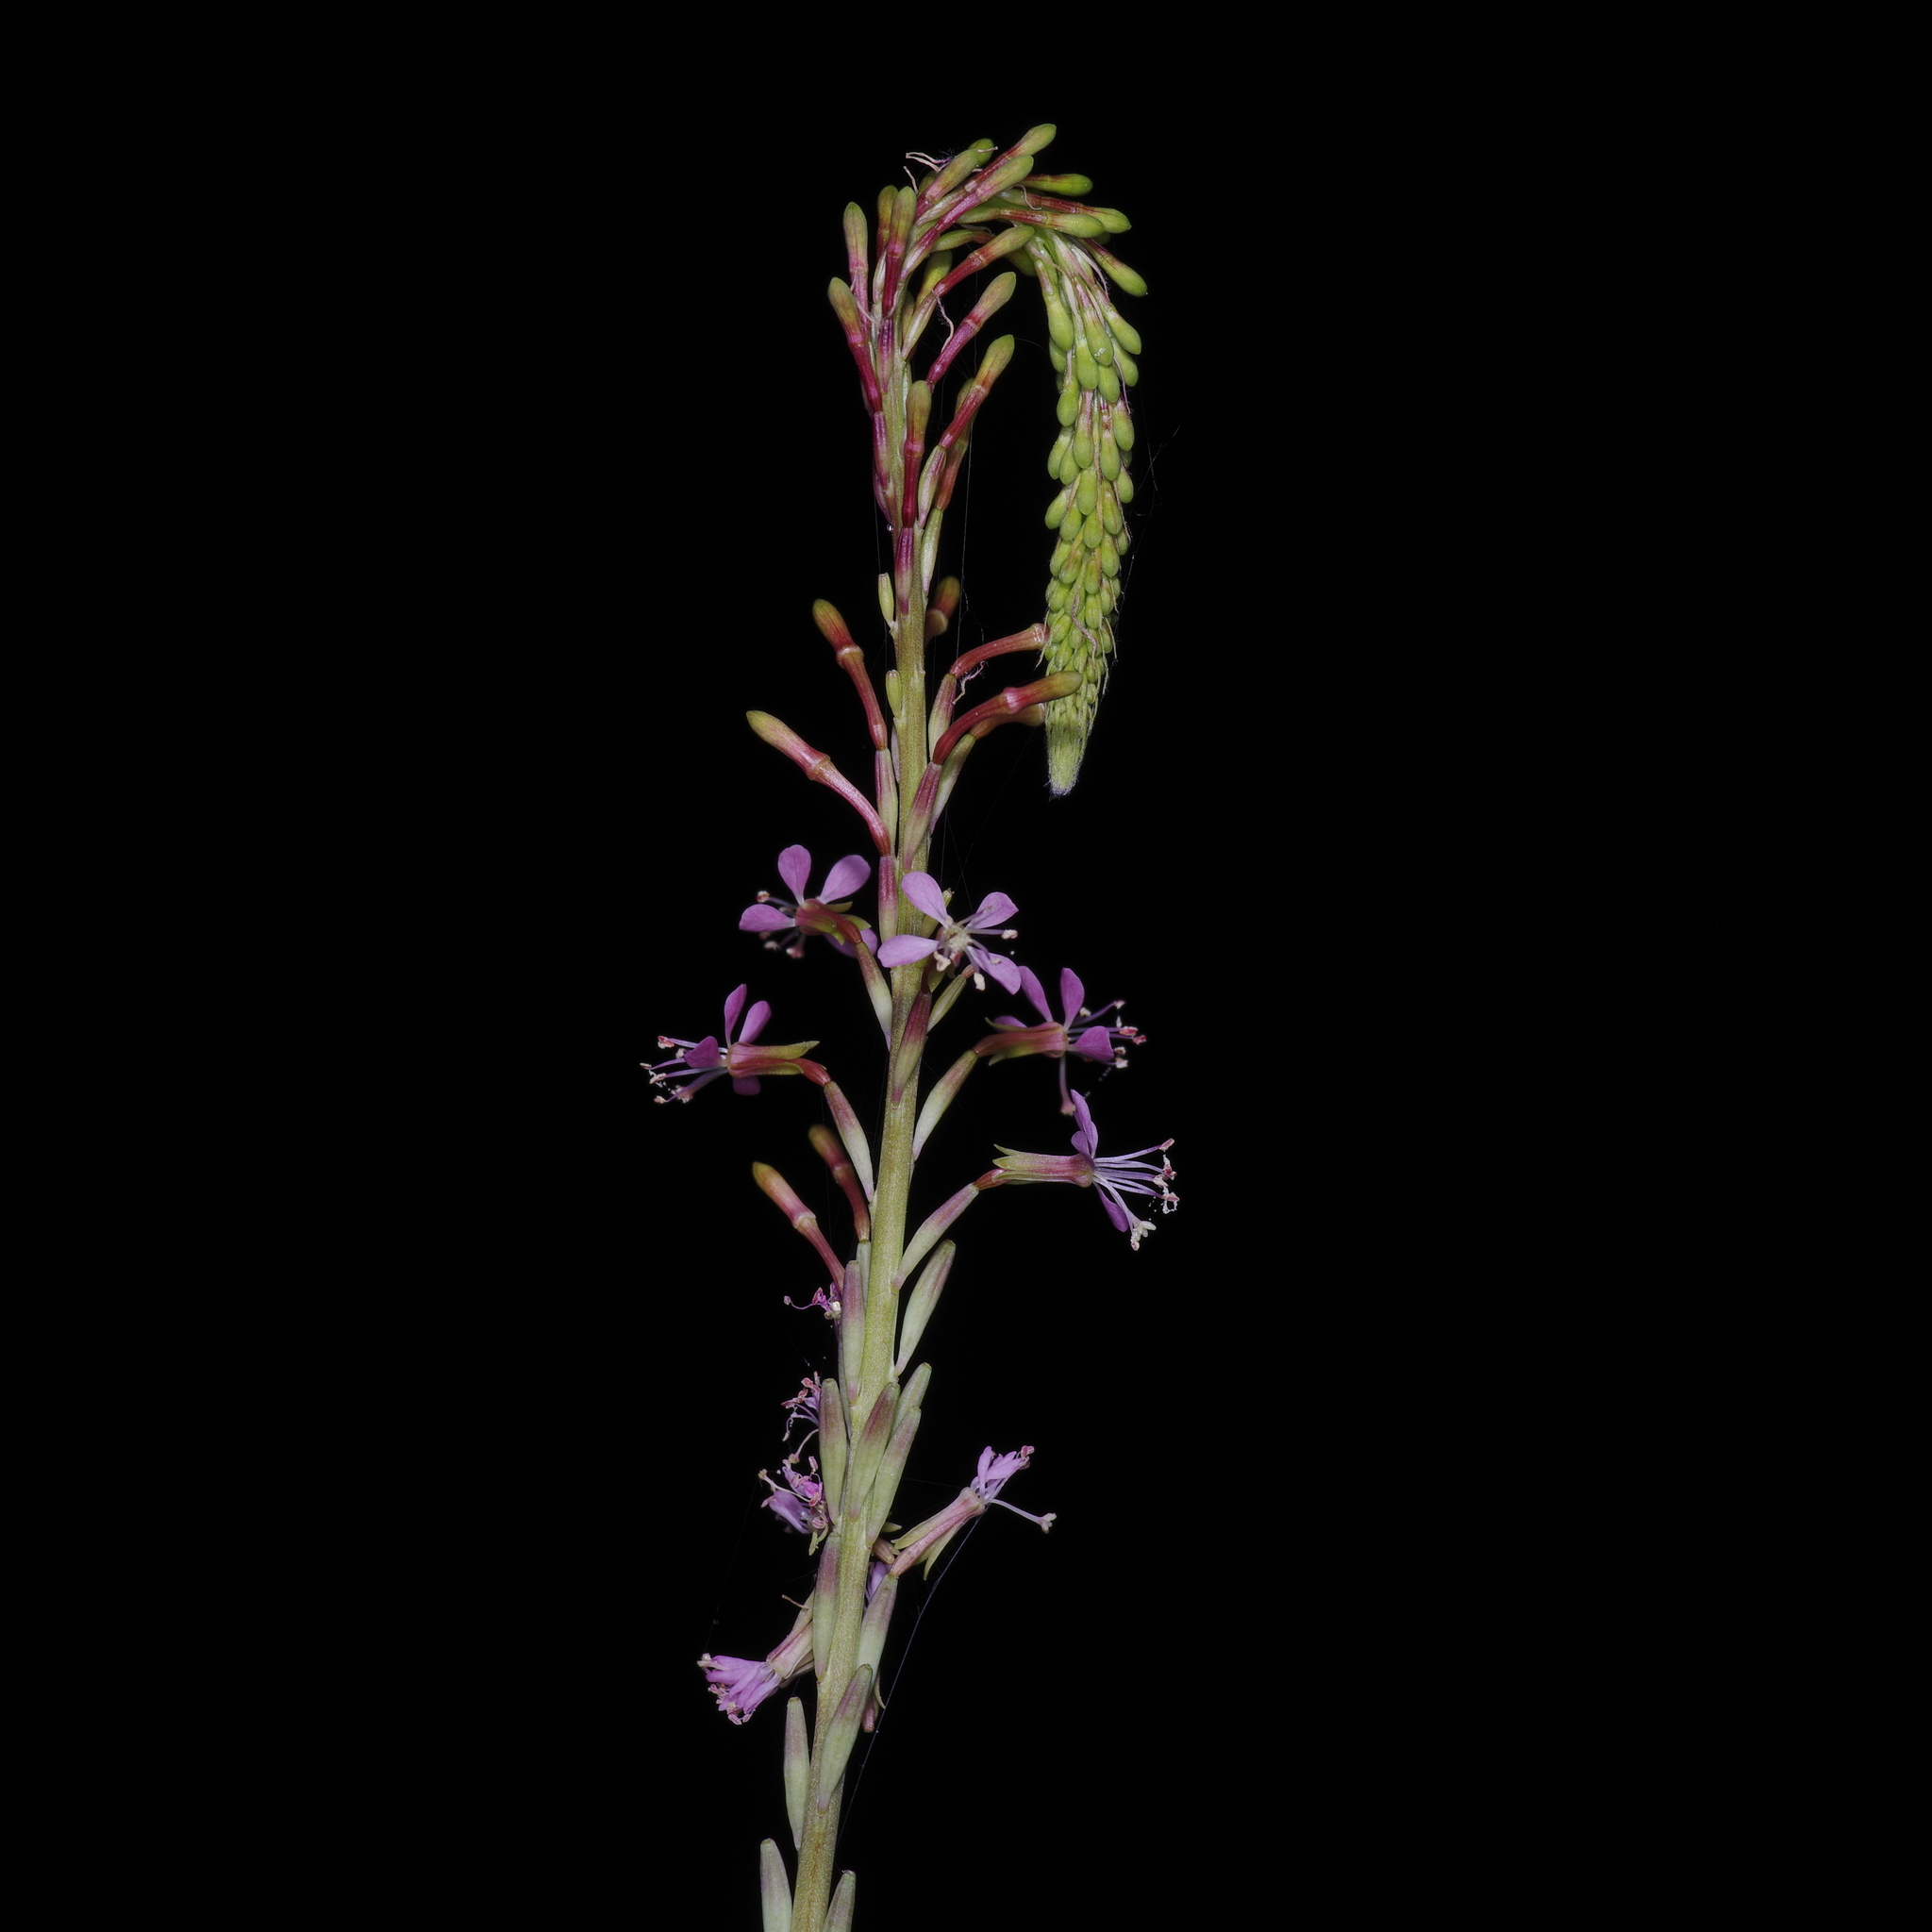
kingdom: Plantae
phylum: Tracheophyta
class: Magnoliopsida
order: Myrtales
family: Onagraceae
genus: Oenothera
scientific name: Oenothera curtiflora
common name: Velvetweed
